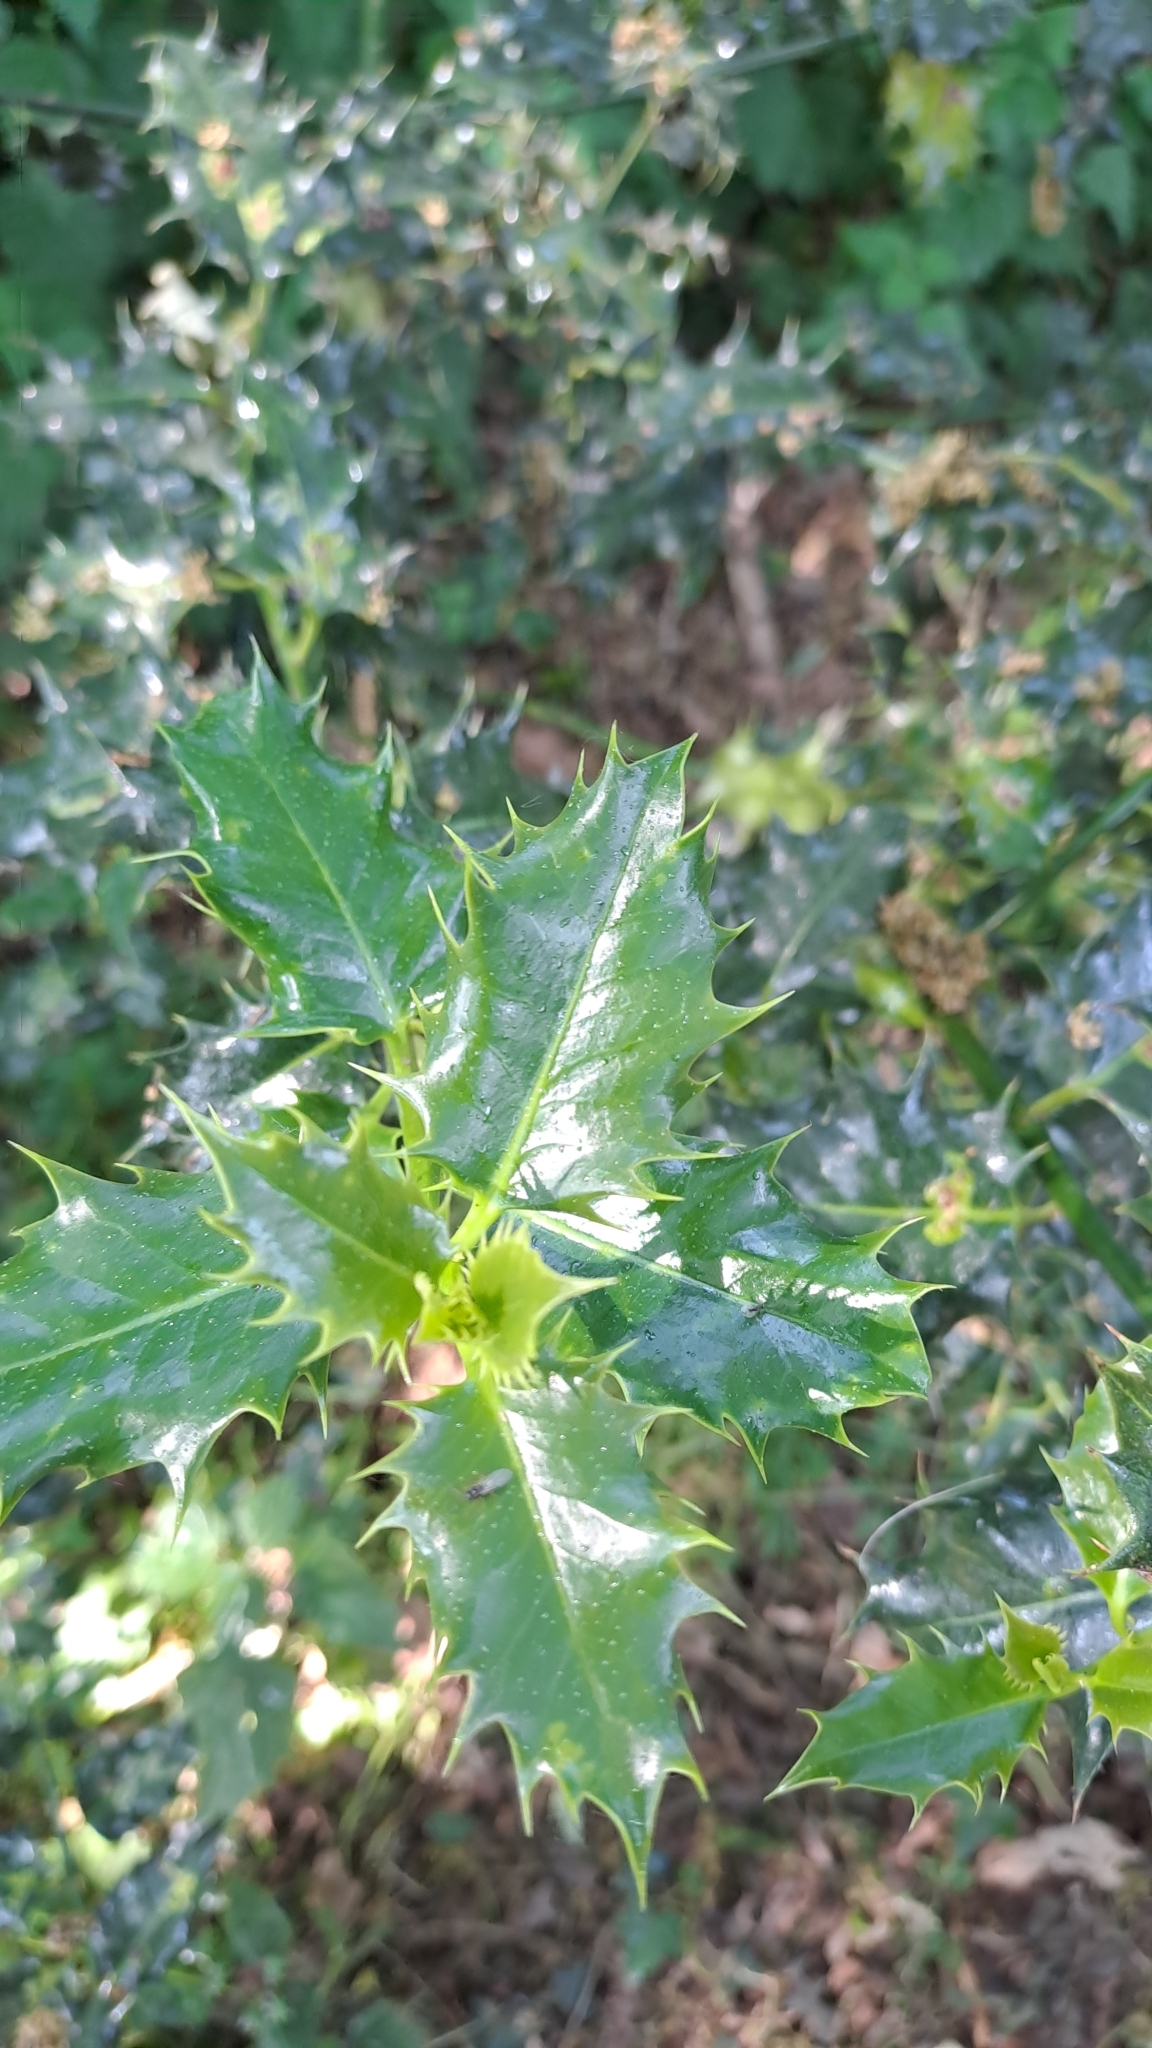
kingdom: Plantae
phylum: Tracheophyta
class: Magnoliopsida
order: Aquifoliales
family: Aquifoliaceae
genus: Ilex
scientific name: Ilex aquifolium
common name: English holly
